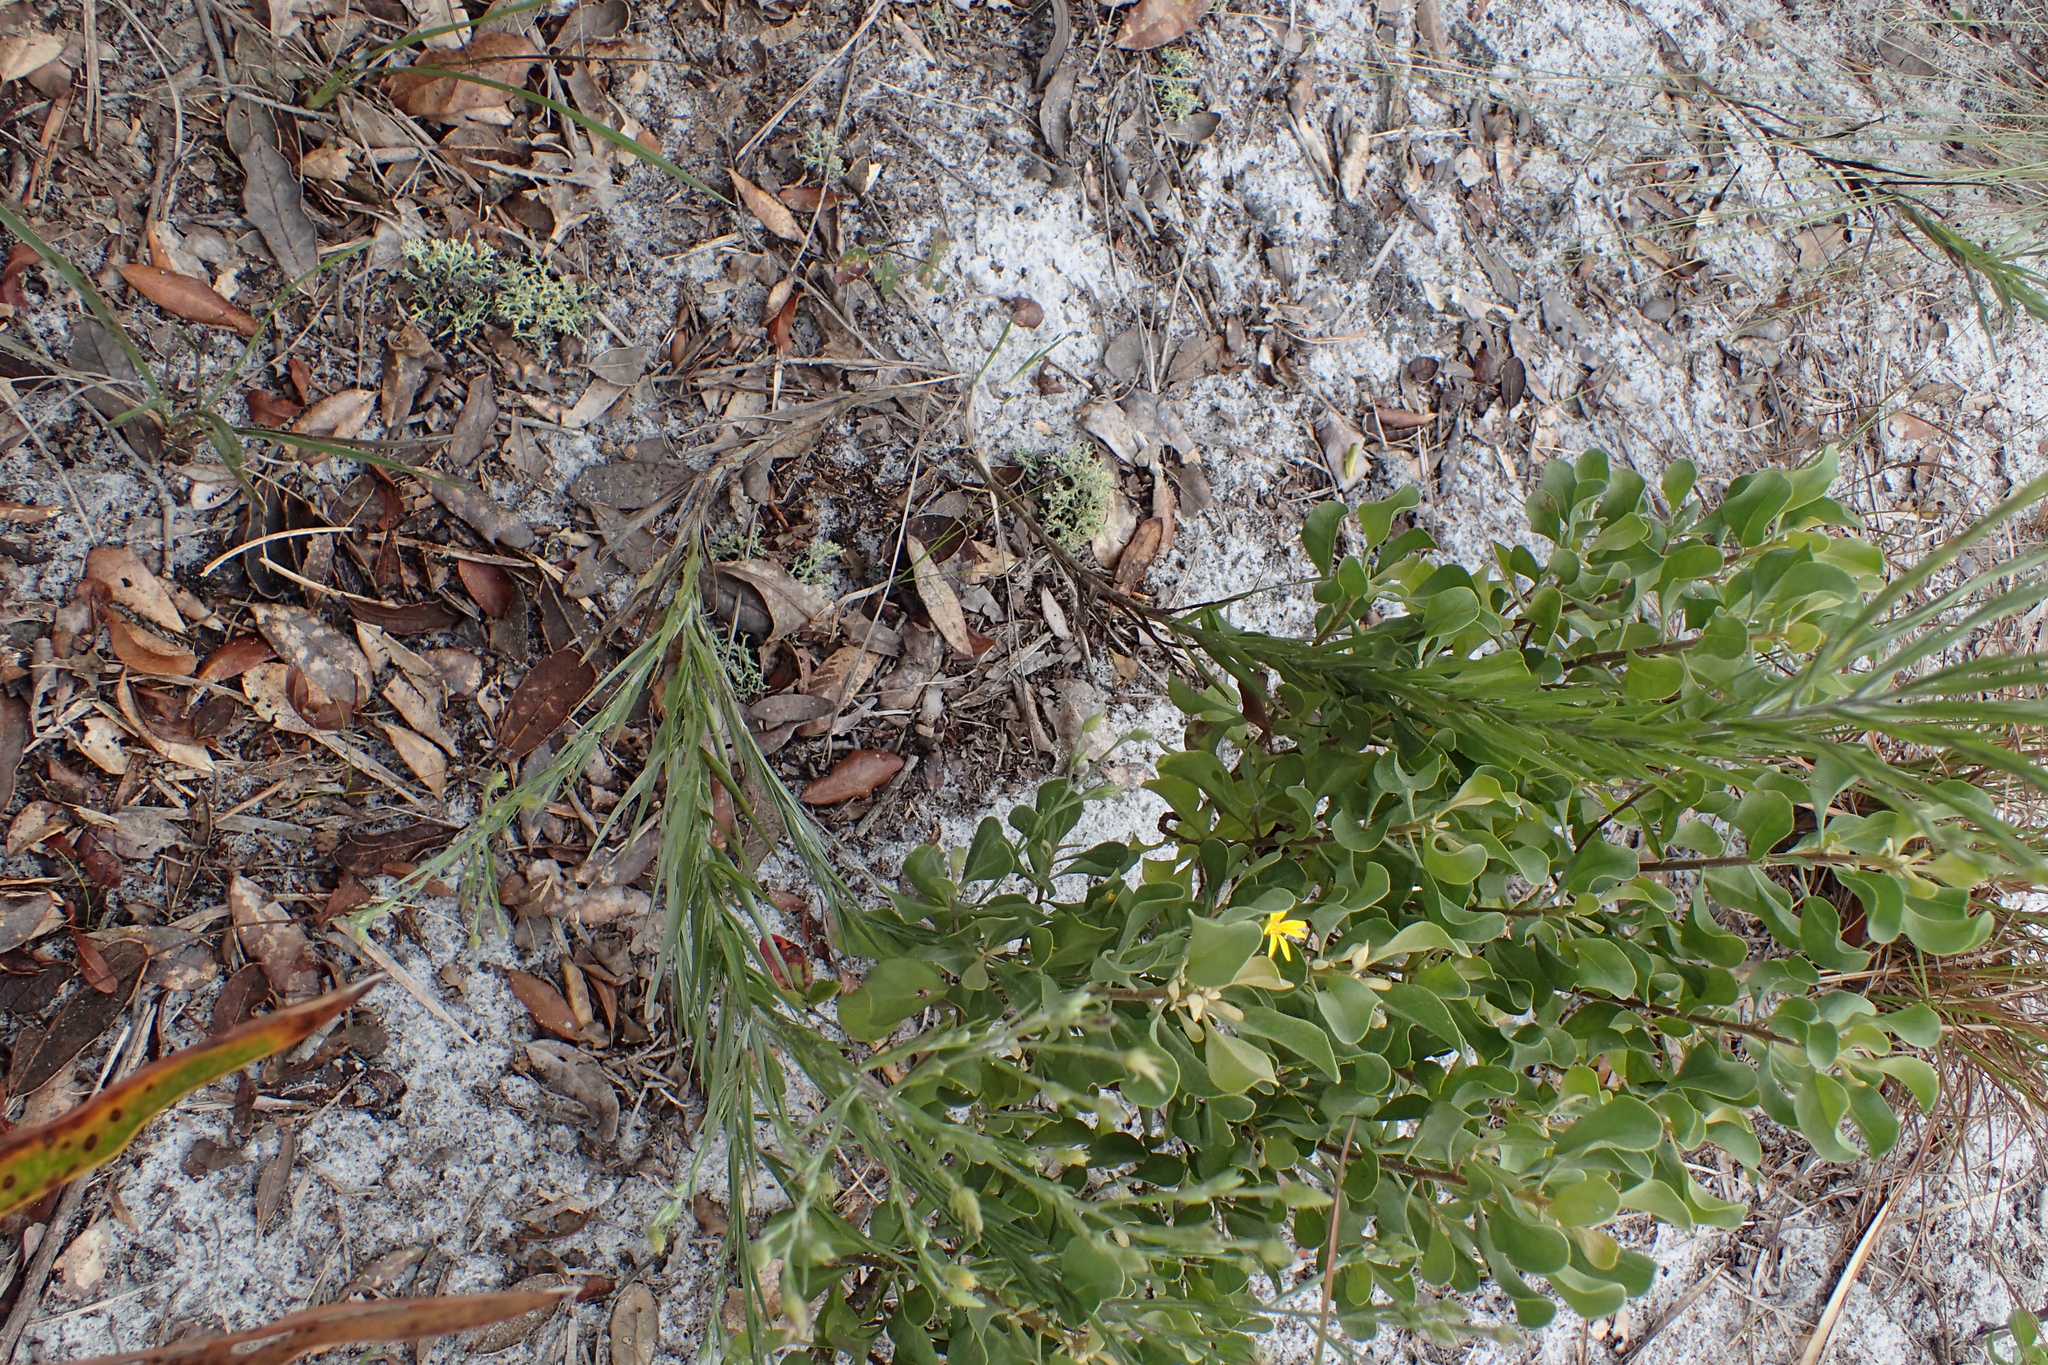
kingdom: Plantae
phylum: Tracheophyta
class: Magnoliopsida
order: Asterales
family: Asteraceae
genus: Pityopsis
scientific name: Pityopsis graminifolia
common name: Grass-leaf golden-aster
